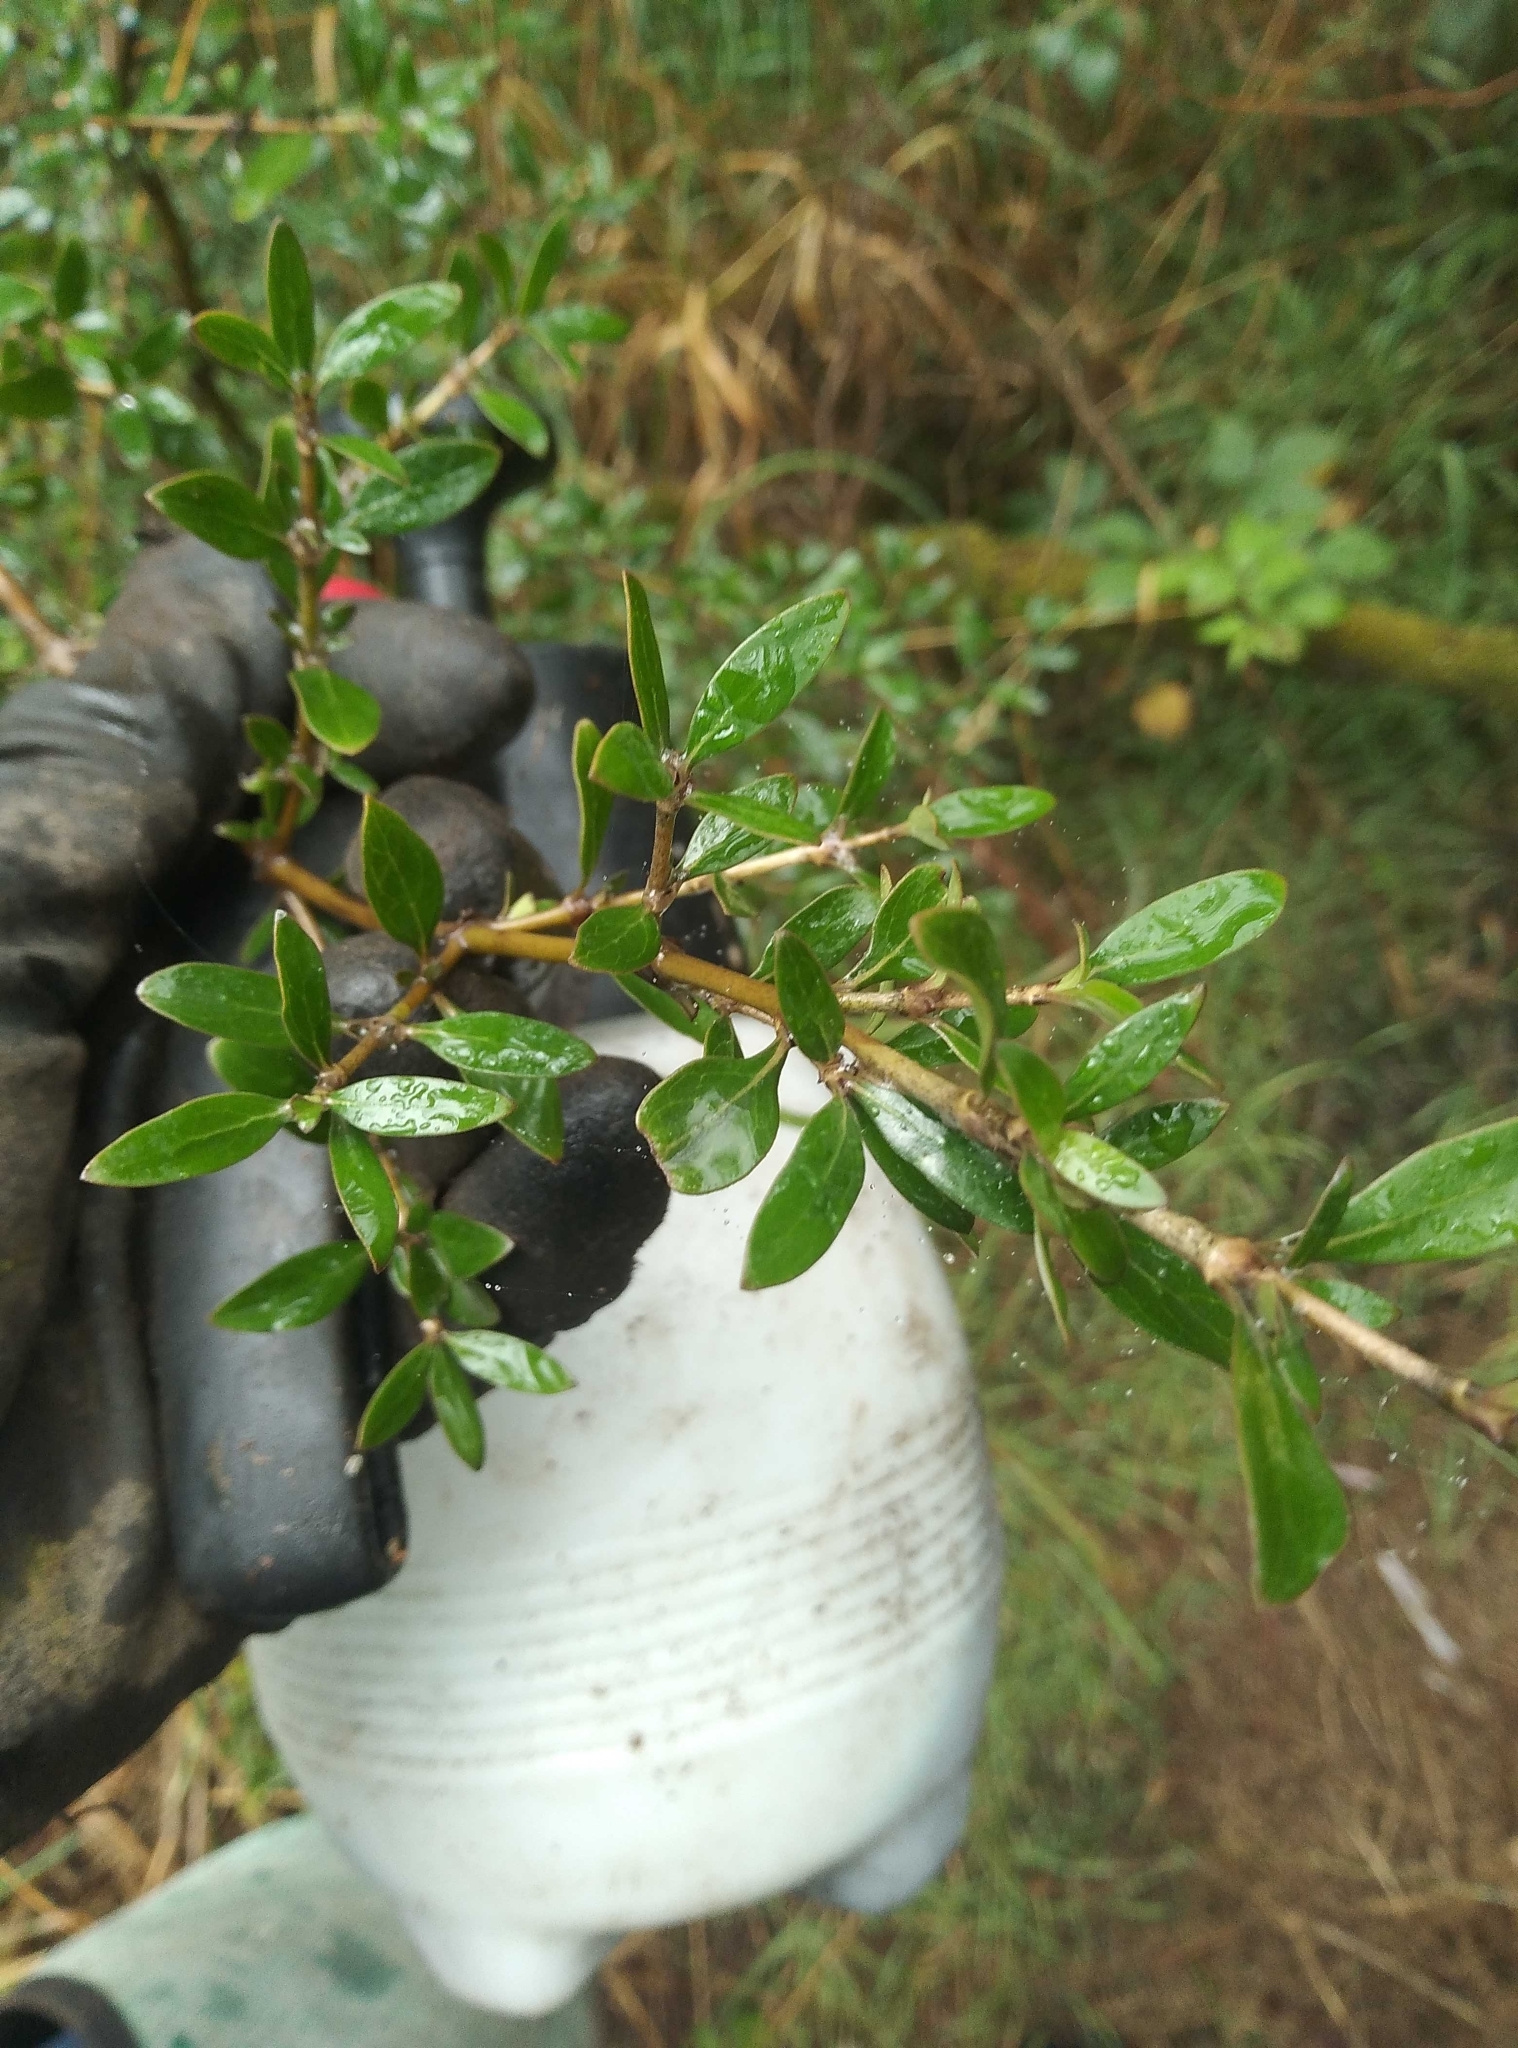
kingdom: Plantae
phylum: Tracheophyta
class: Magnoliopsida
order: Gentianales
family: Rubiaceae
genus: Coprosma
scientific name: Coprosma cunninghamii
